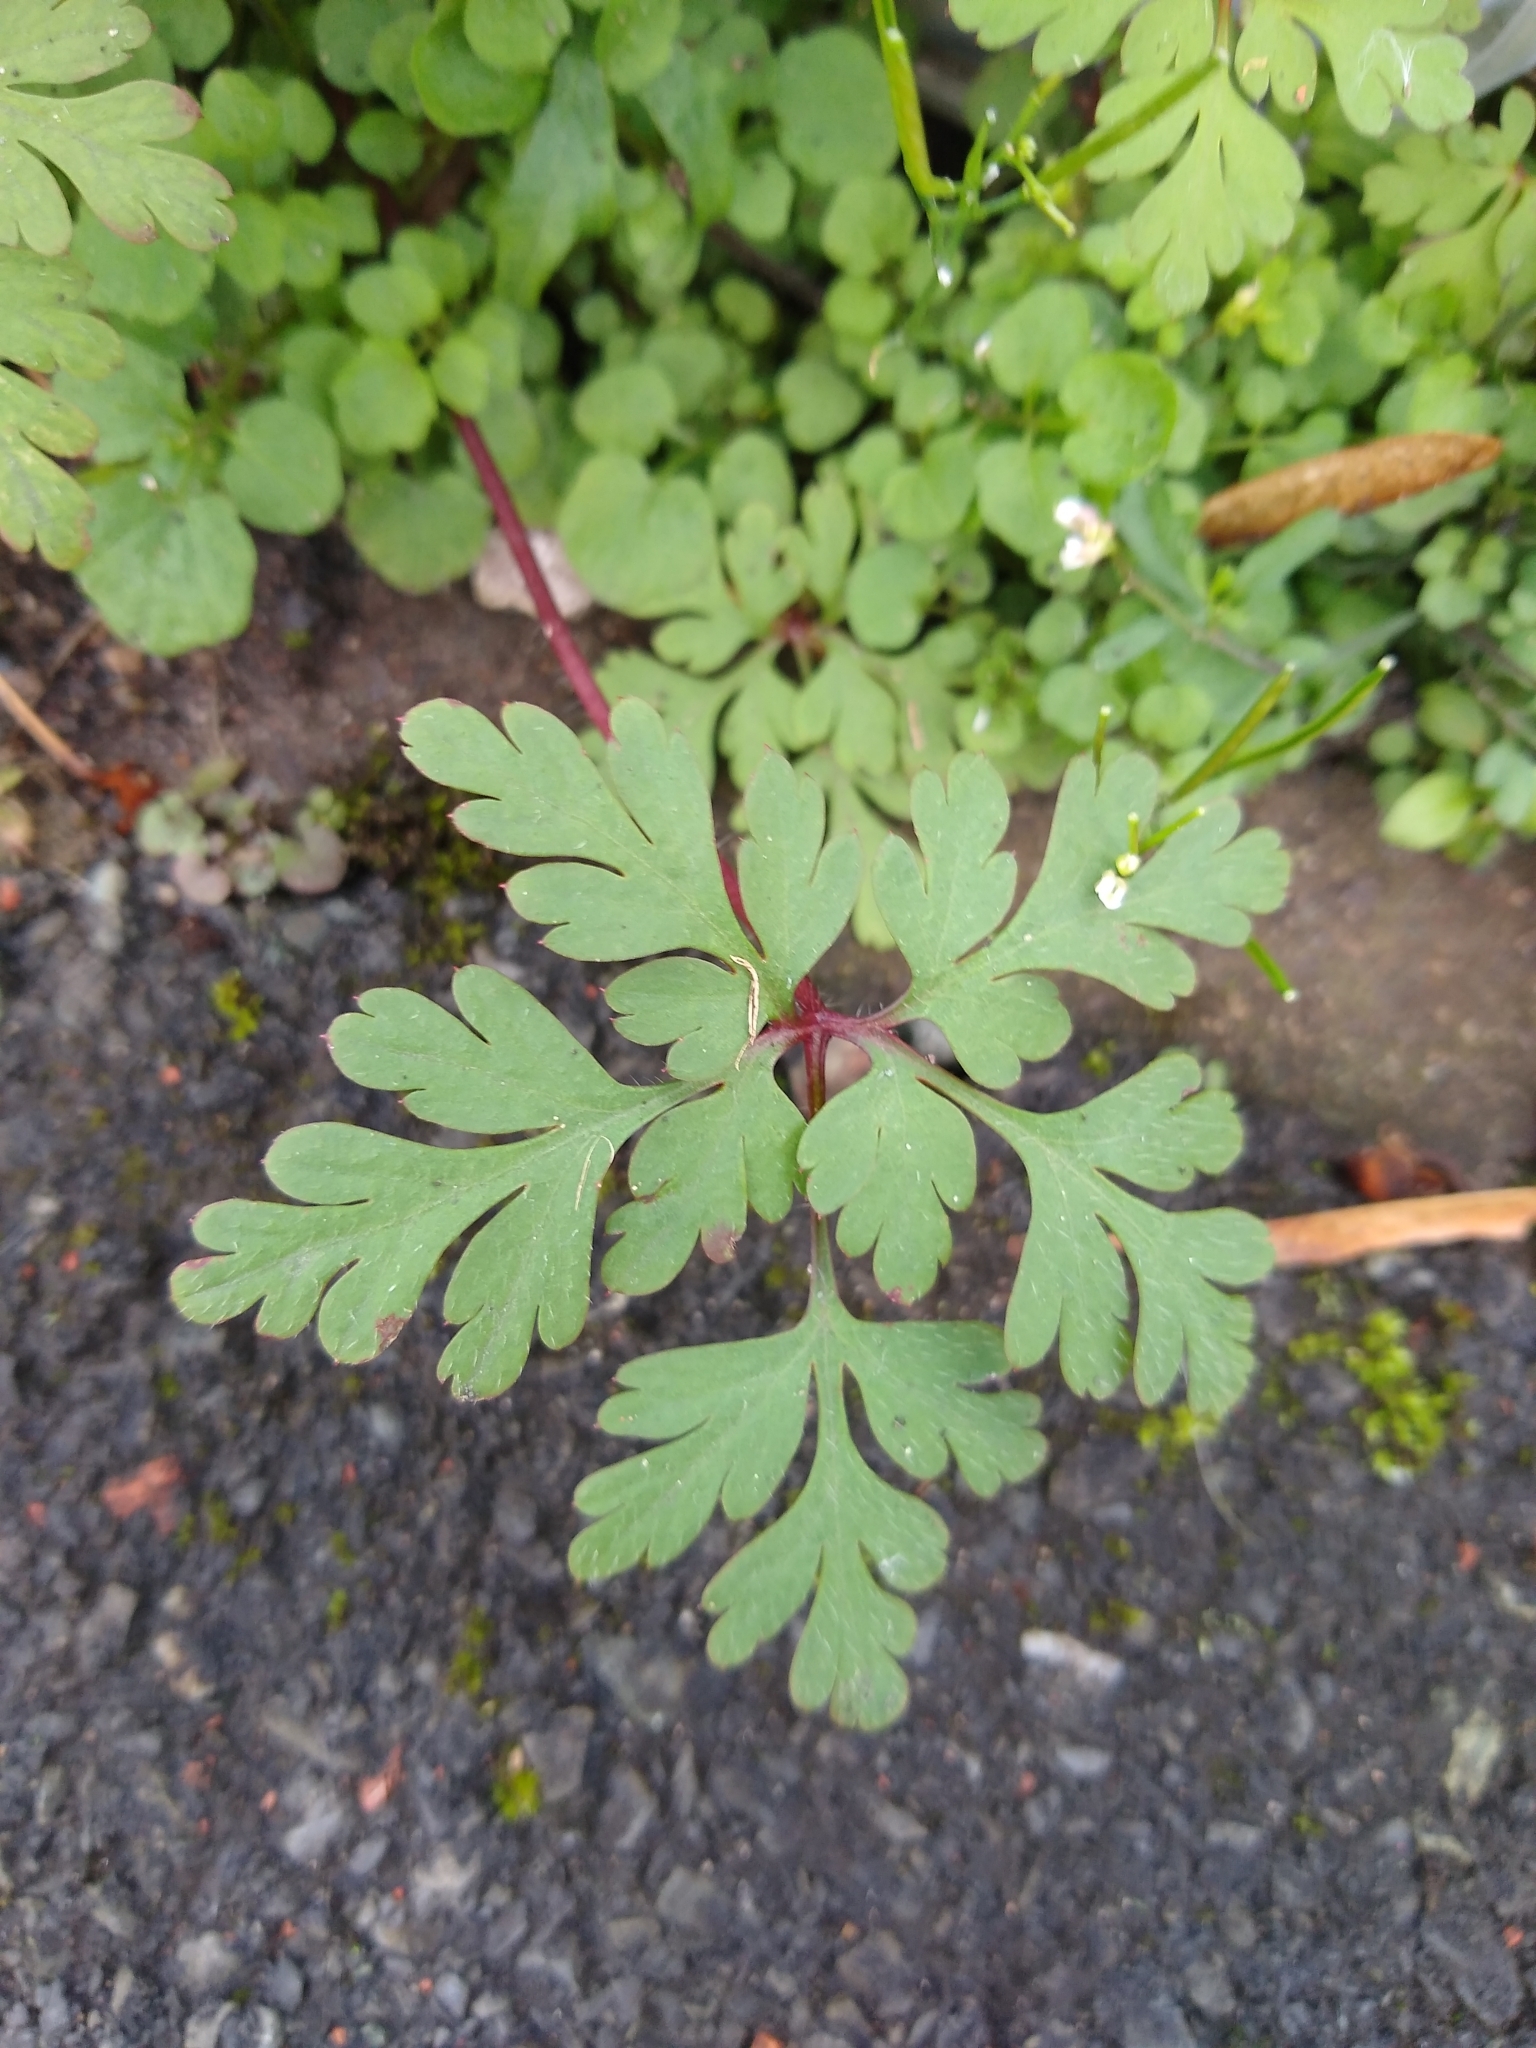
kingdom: Plantae
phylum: Tracheophyta
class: Magnoliopsida
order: Geraniales
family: Geraniaceae
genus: Geranium
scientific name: Geranium robertianum
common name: Herb-robert
